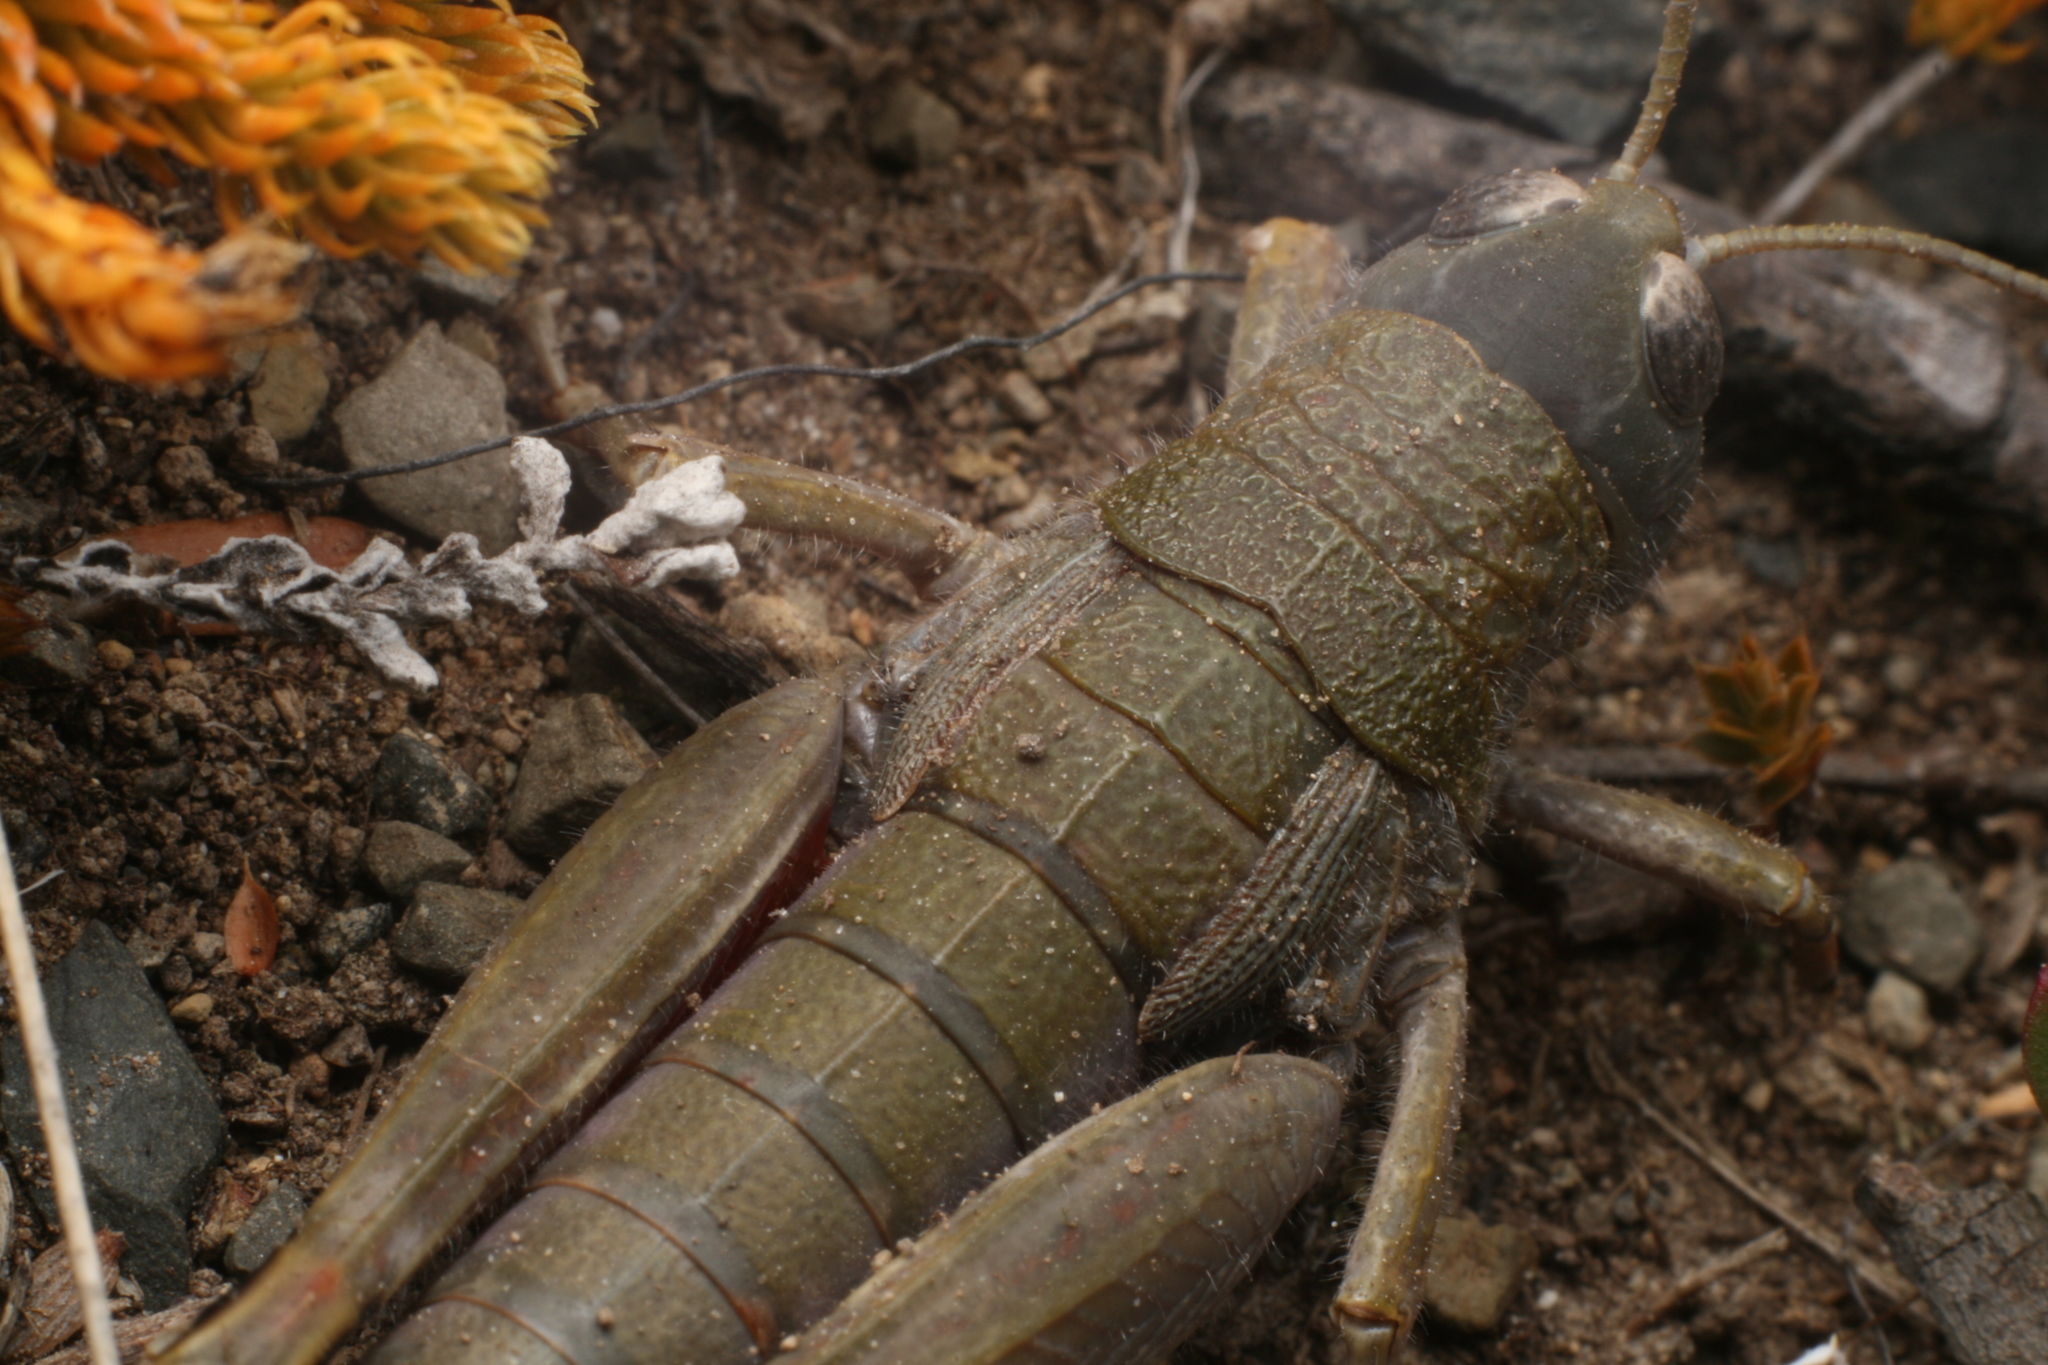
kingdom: Animalia
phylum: Arthropoda
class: Insecta
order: Orthoptera
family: Acrididae
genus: Sigaus
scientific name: Sigaus
